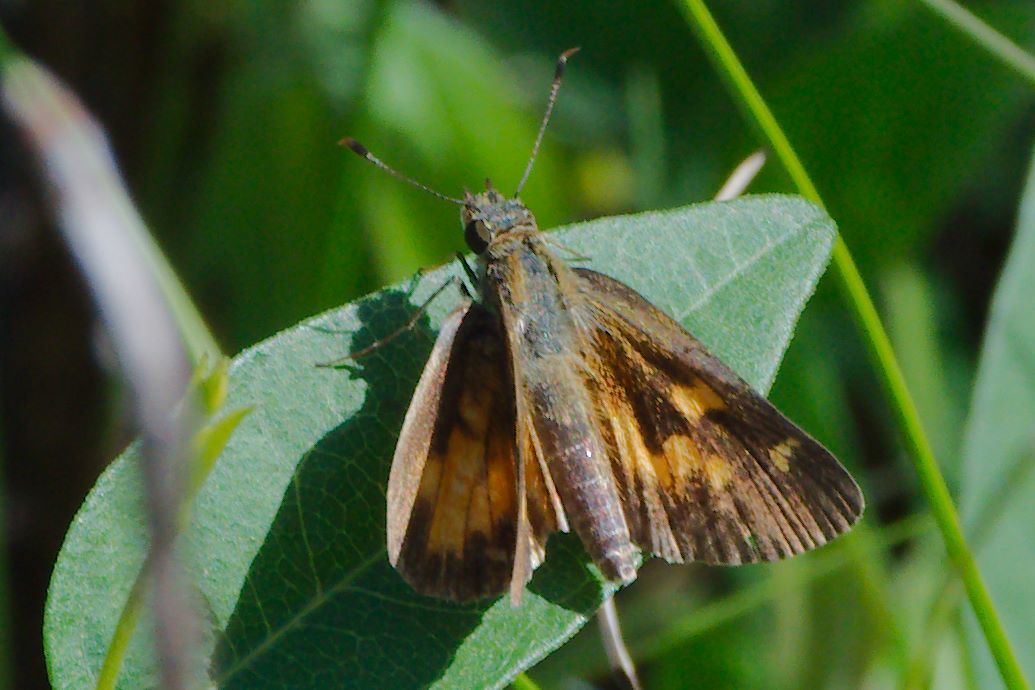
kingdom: Animalia
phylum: Arthropoda
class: Insecta
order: Lepidoptera
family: Hesperiidae
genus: Poanes
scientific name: Poanes viator
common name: Broad-winged skipper
